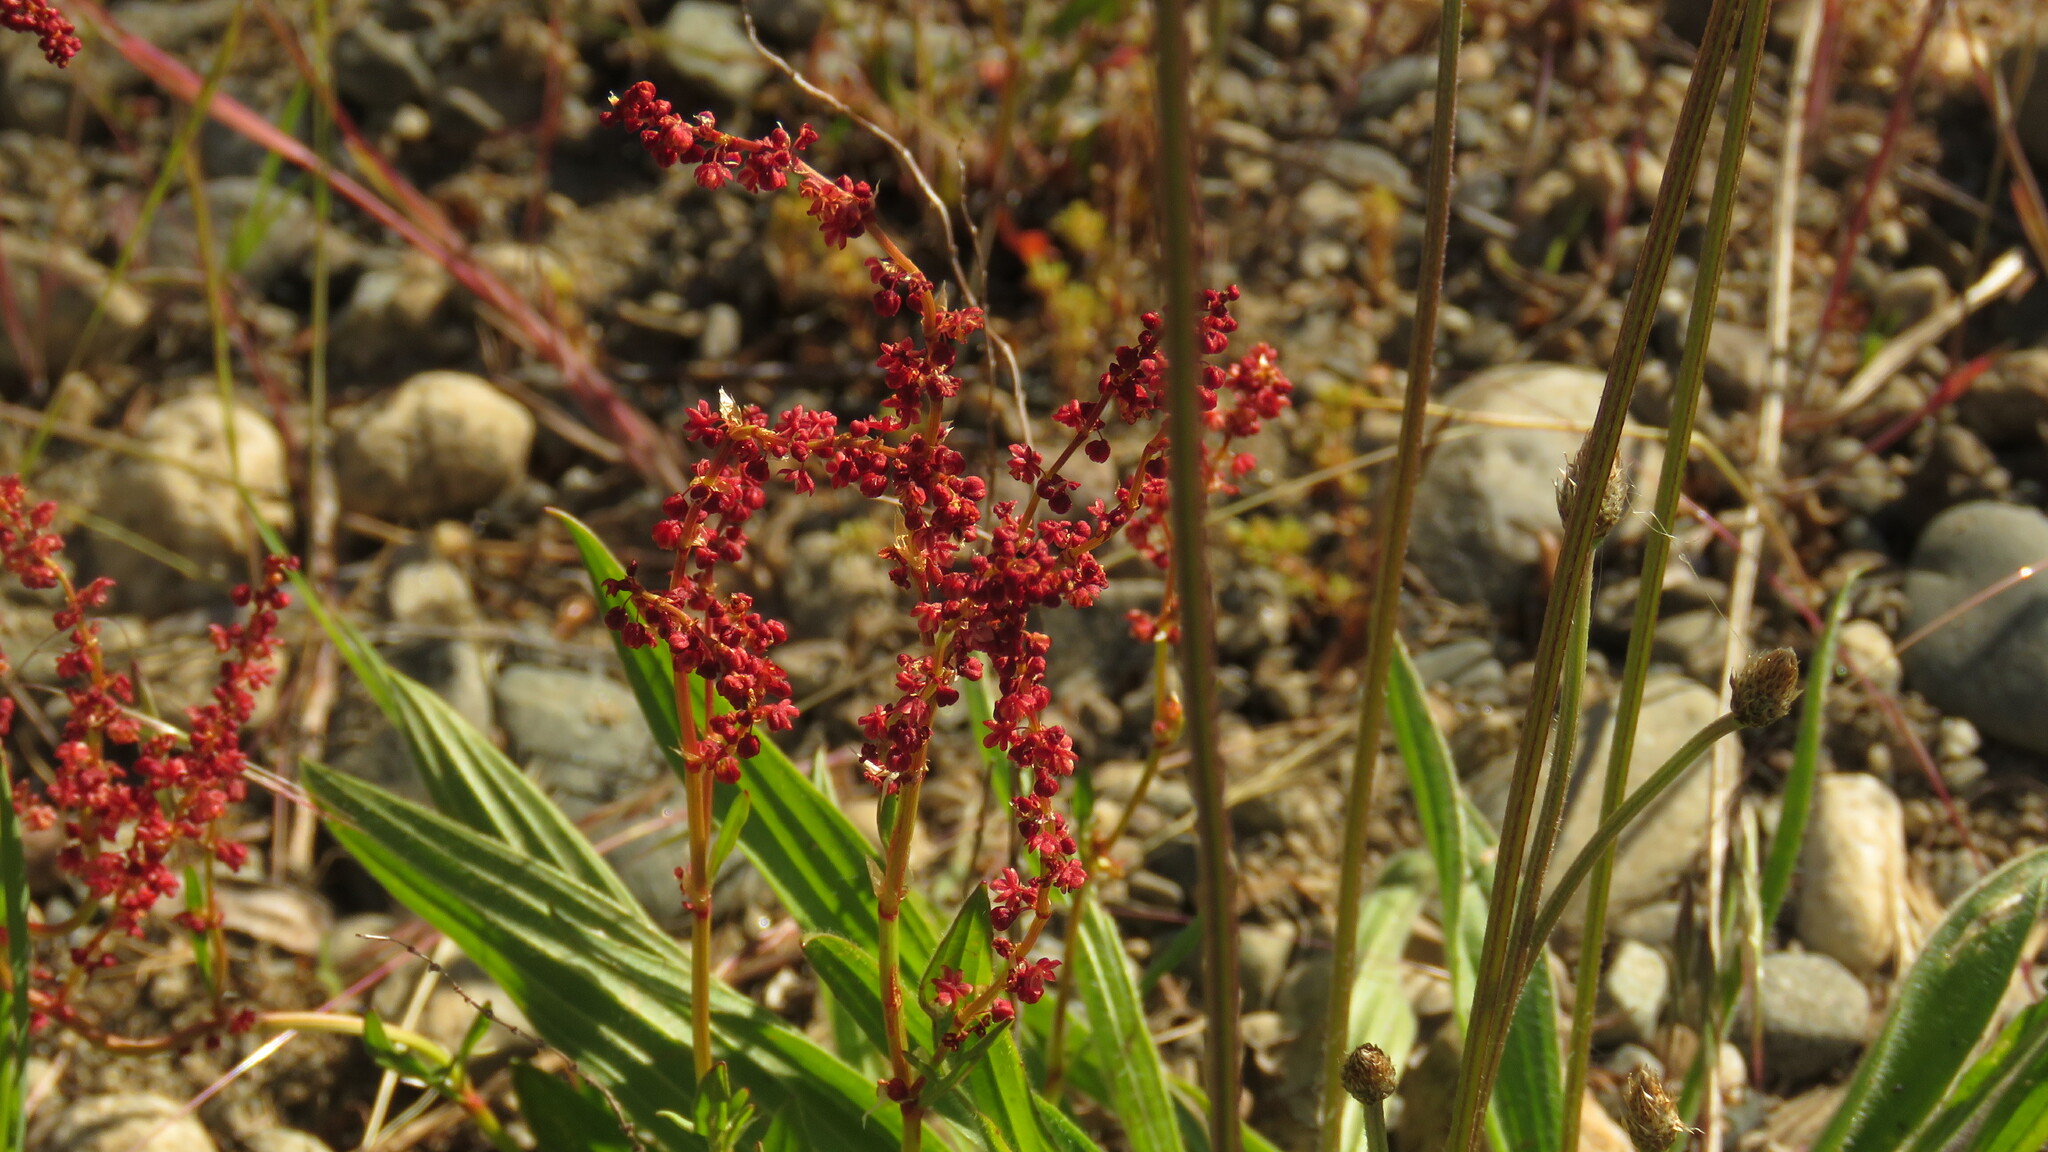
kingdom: Plantae
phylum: Tracheophyta
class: Magnoliopsida
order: Caryophyllales
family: Polygonaceae
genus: Rumex
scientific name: Rumex acetosella
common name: Common sheep sorrel
